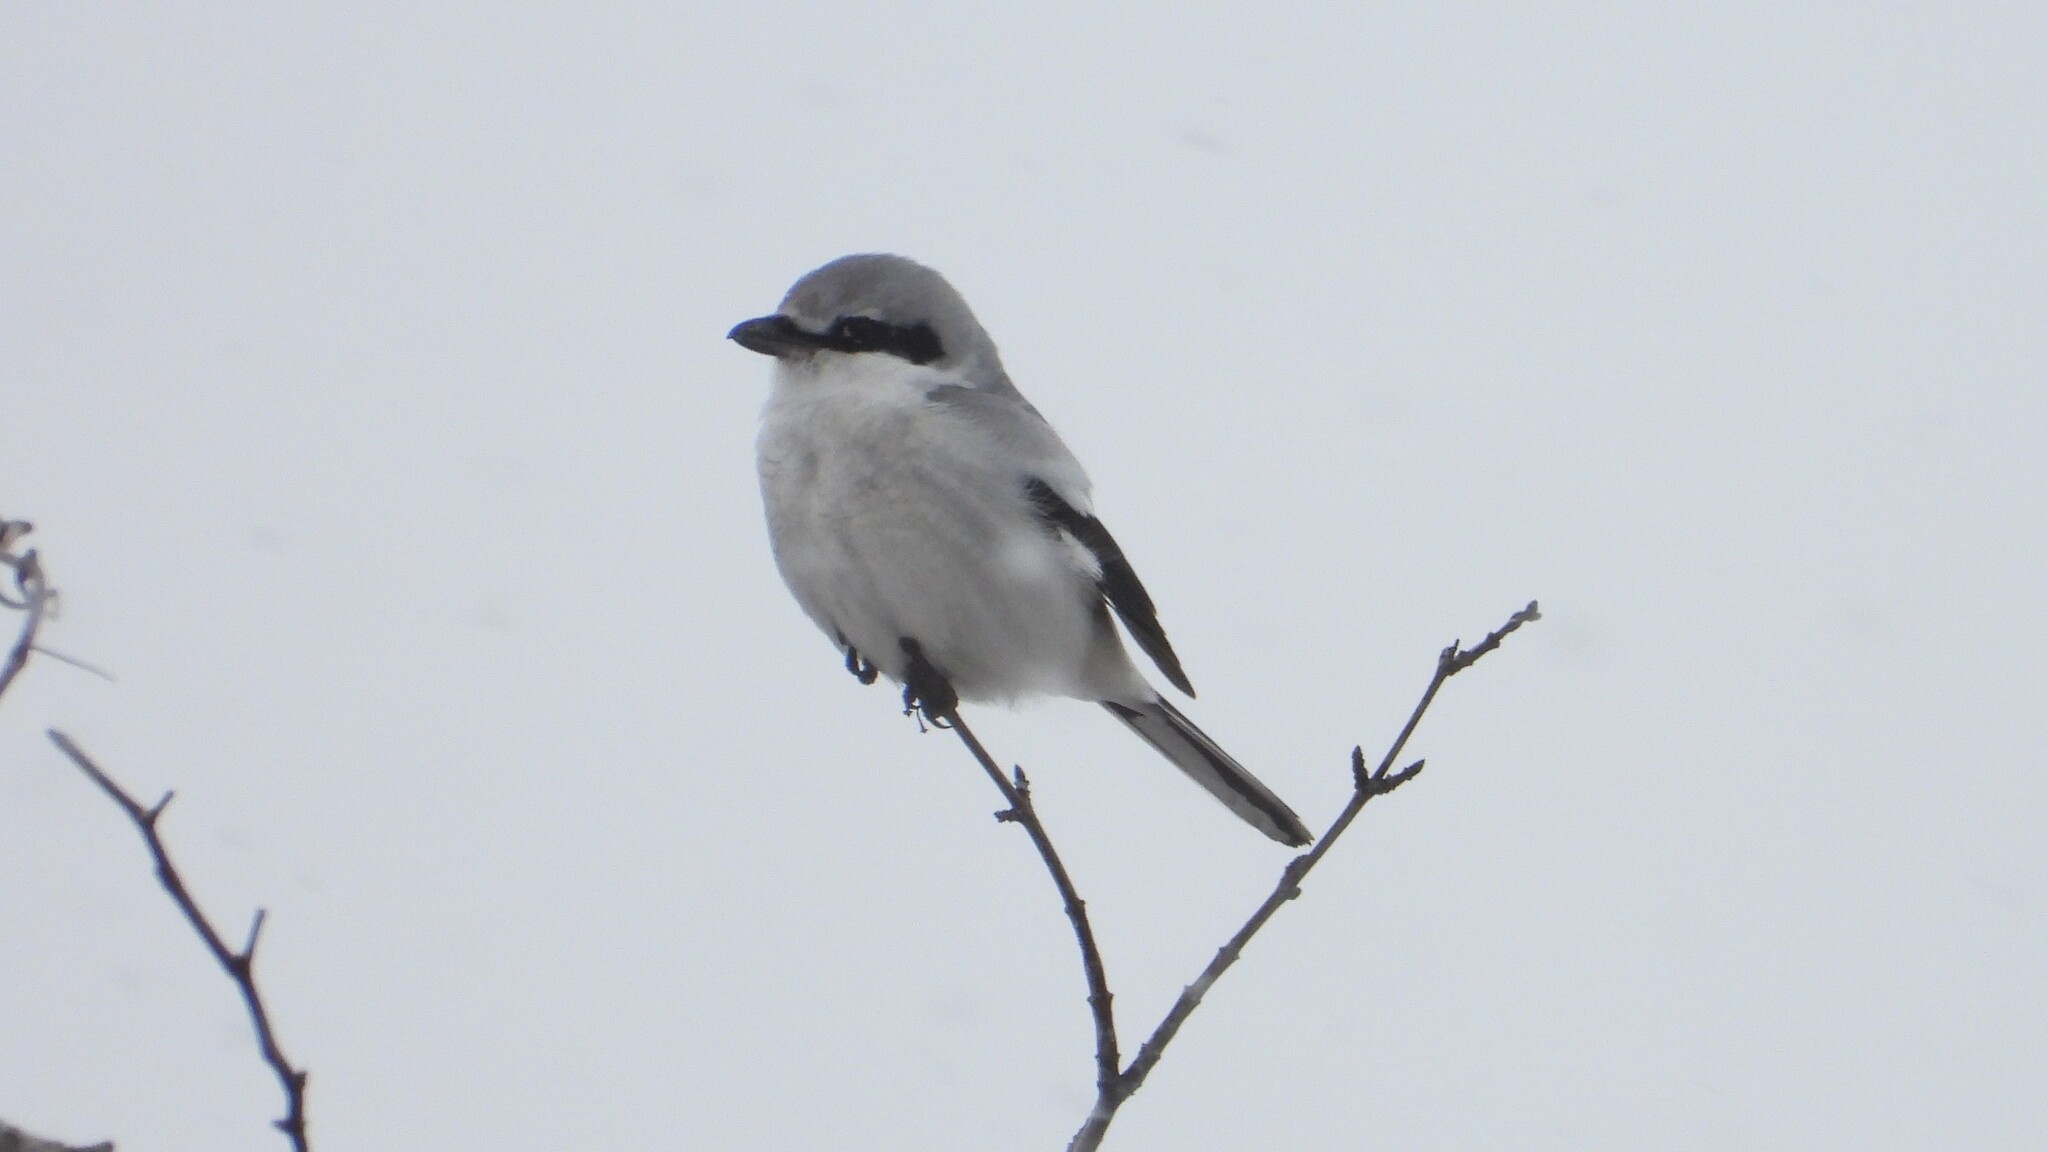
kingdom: Animalia
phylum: Chordata
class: Aves
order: Passeriformes
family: Laniidae
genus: Lanius
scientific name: Lanius borealis
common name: Northern shrike
